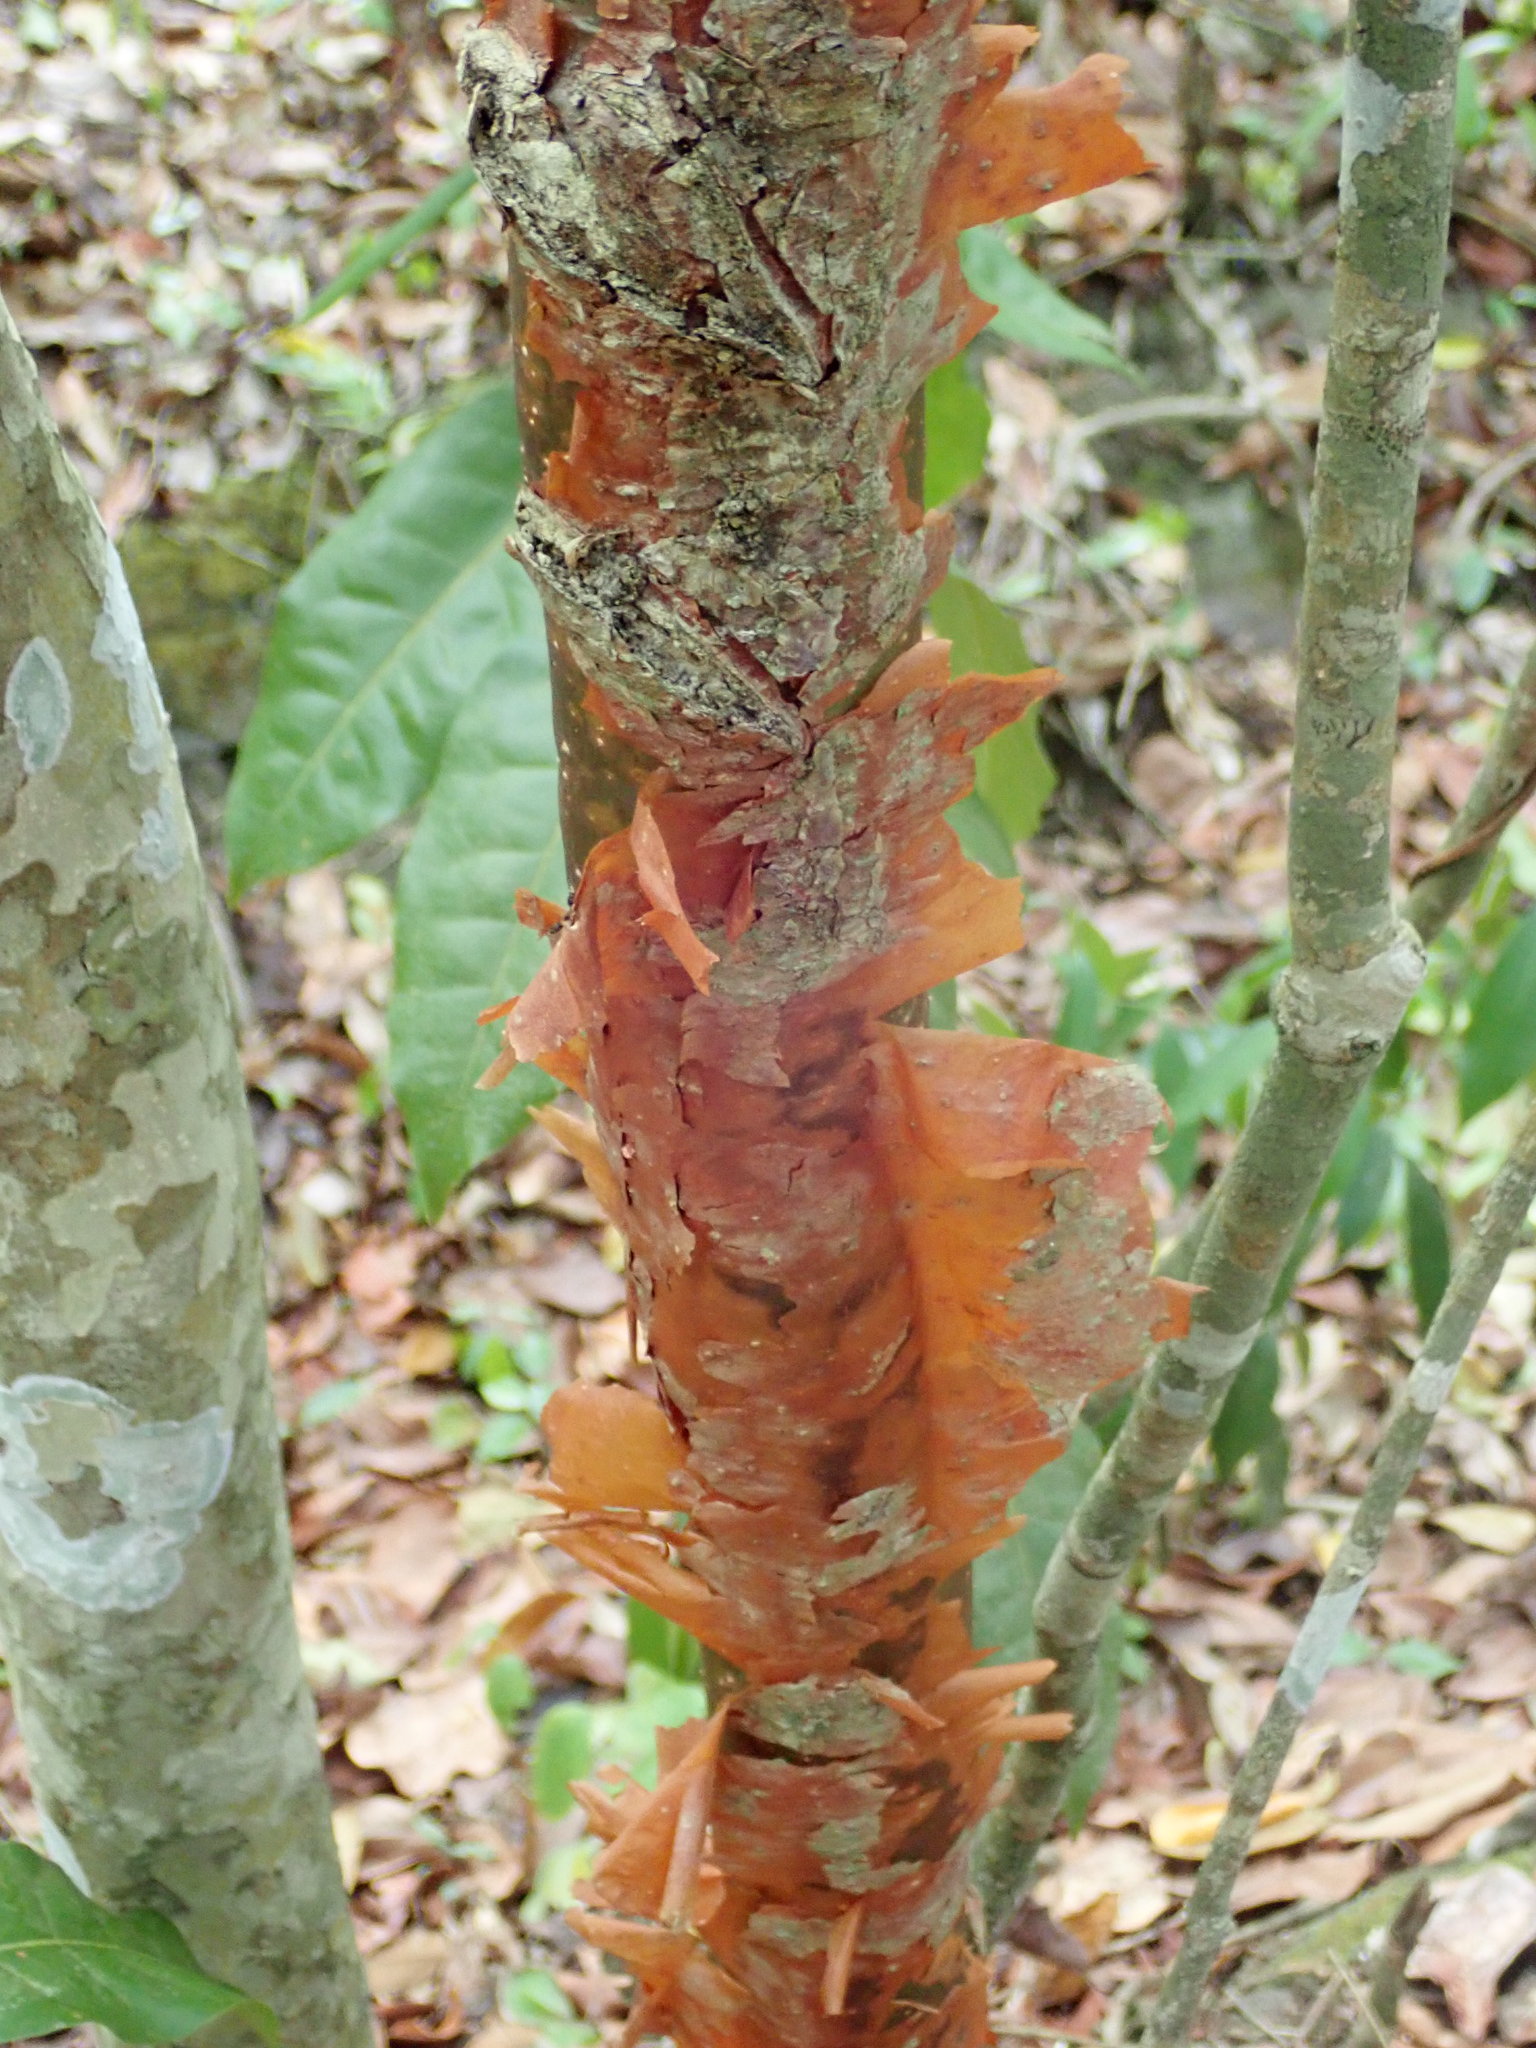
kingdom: Plantae
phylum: Tracheophyta
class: Magnoliopsida
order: Sapindales
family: Burseraceae
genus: Bursera
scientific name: Bursera simaruba
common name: Turpentine tree
